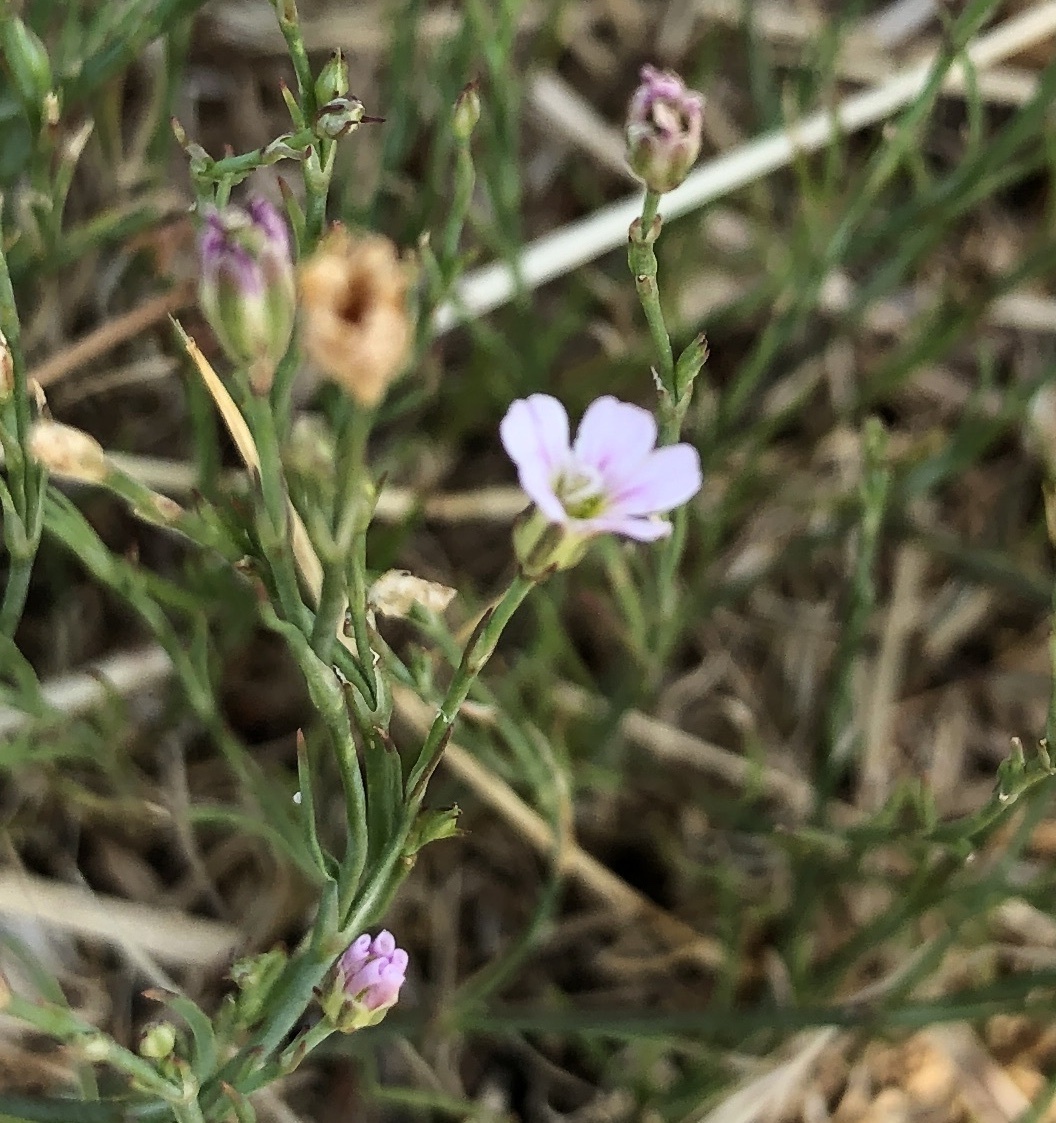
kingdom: Plantae
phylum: Tracheophyta
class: Magnoliopsida
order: Caryophyllales
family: Caryophyllaceae
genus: Petrorhagia
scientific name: Petrorhagia saxifraga
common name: Tunicflower
